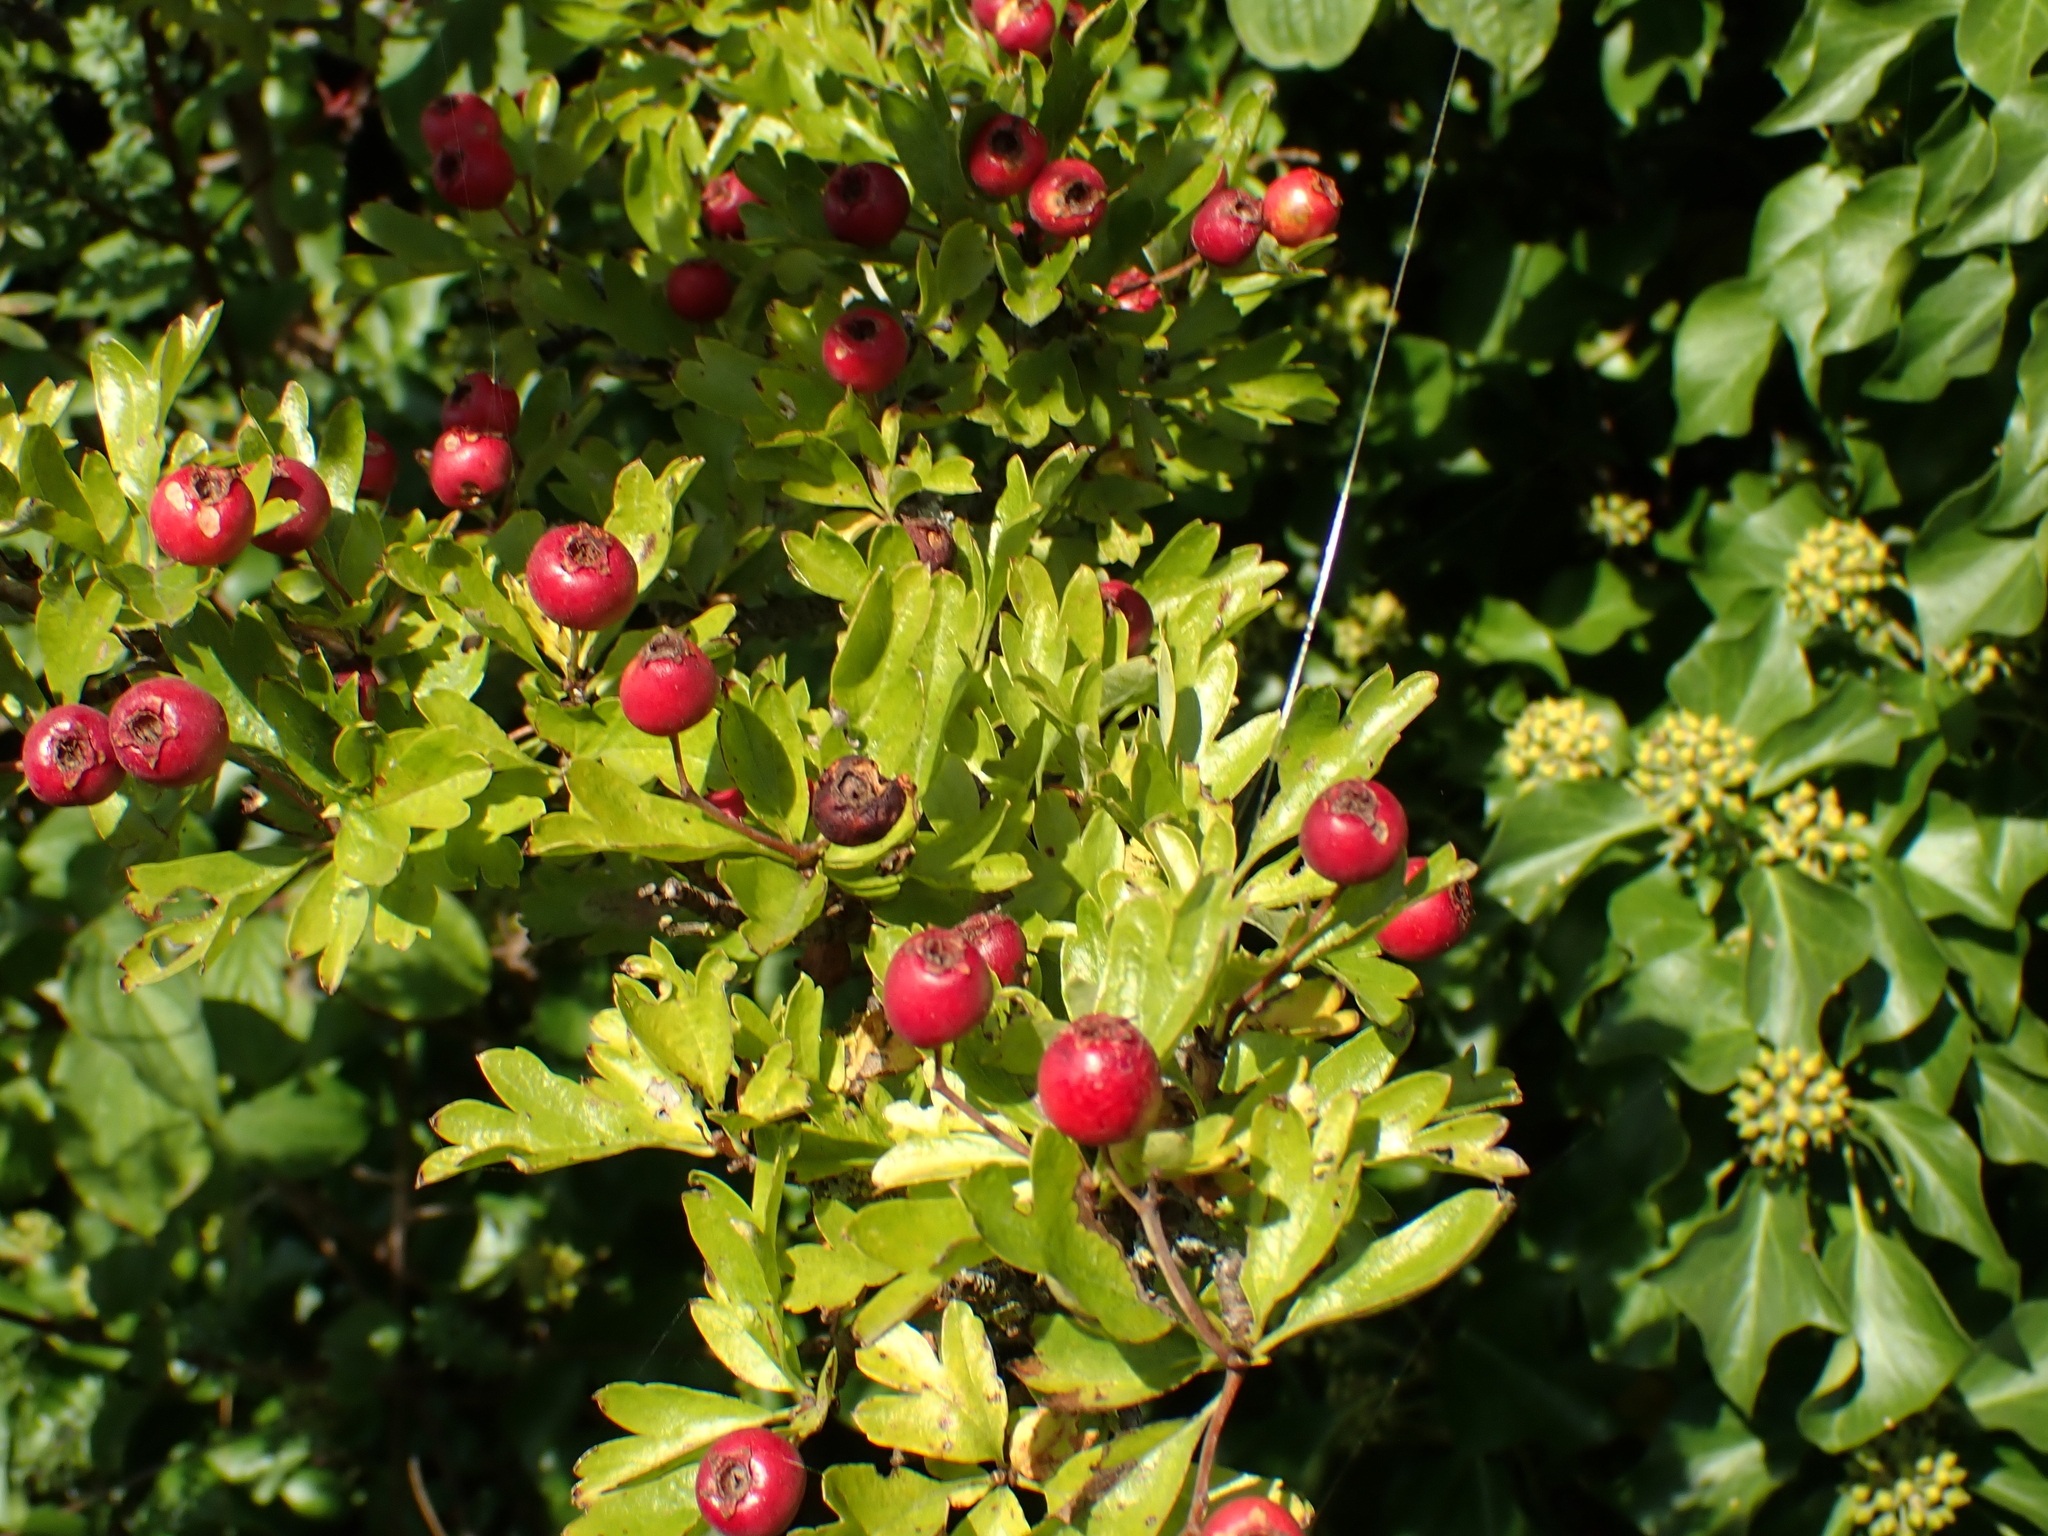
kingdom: Plantae
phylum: Tracheophyta
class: Magnoliopsida
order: Rosales
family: Rosaceae
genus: Crataegus
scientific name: Crataegus monogyna
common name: Hawthorn
